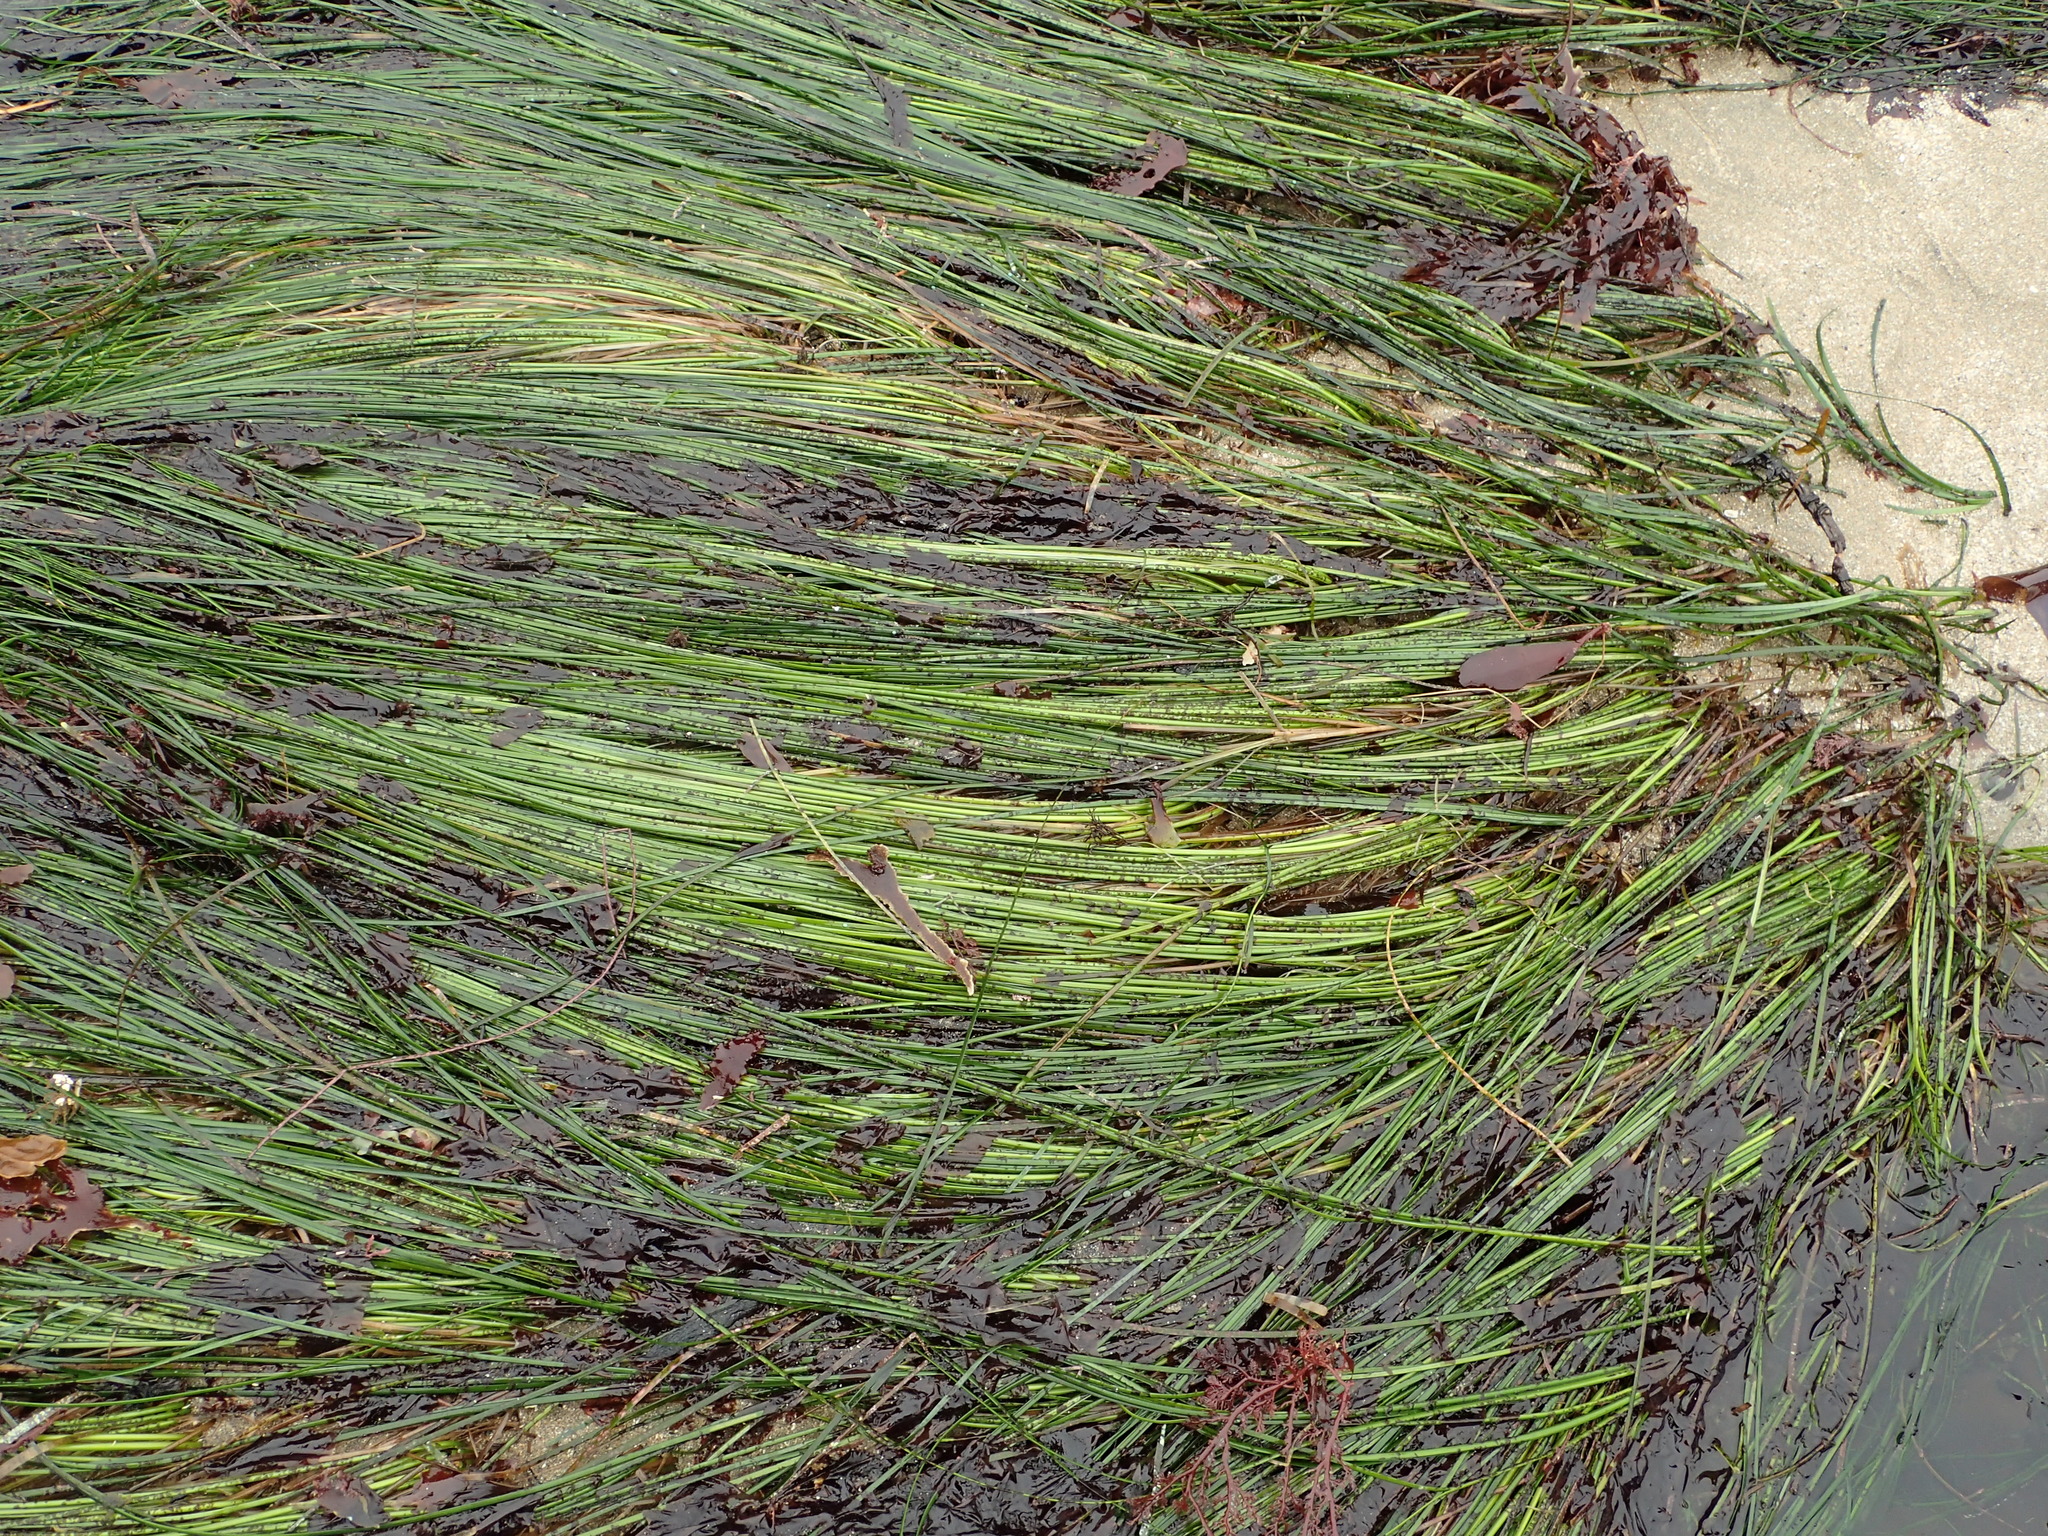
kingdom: Plantae
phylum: Tracheophyta
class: Liliopsida
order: Alismatales
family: Zosteraceae
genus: Phyllospadix
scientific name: Phyllospadix torreyi
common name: Surfgrass
